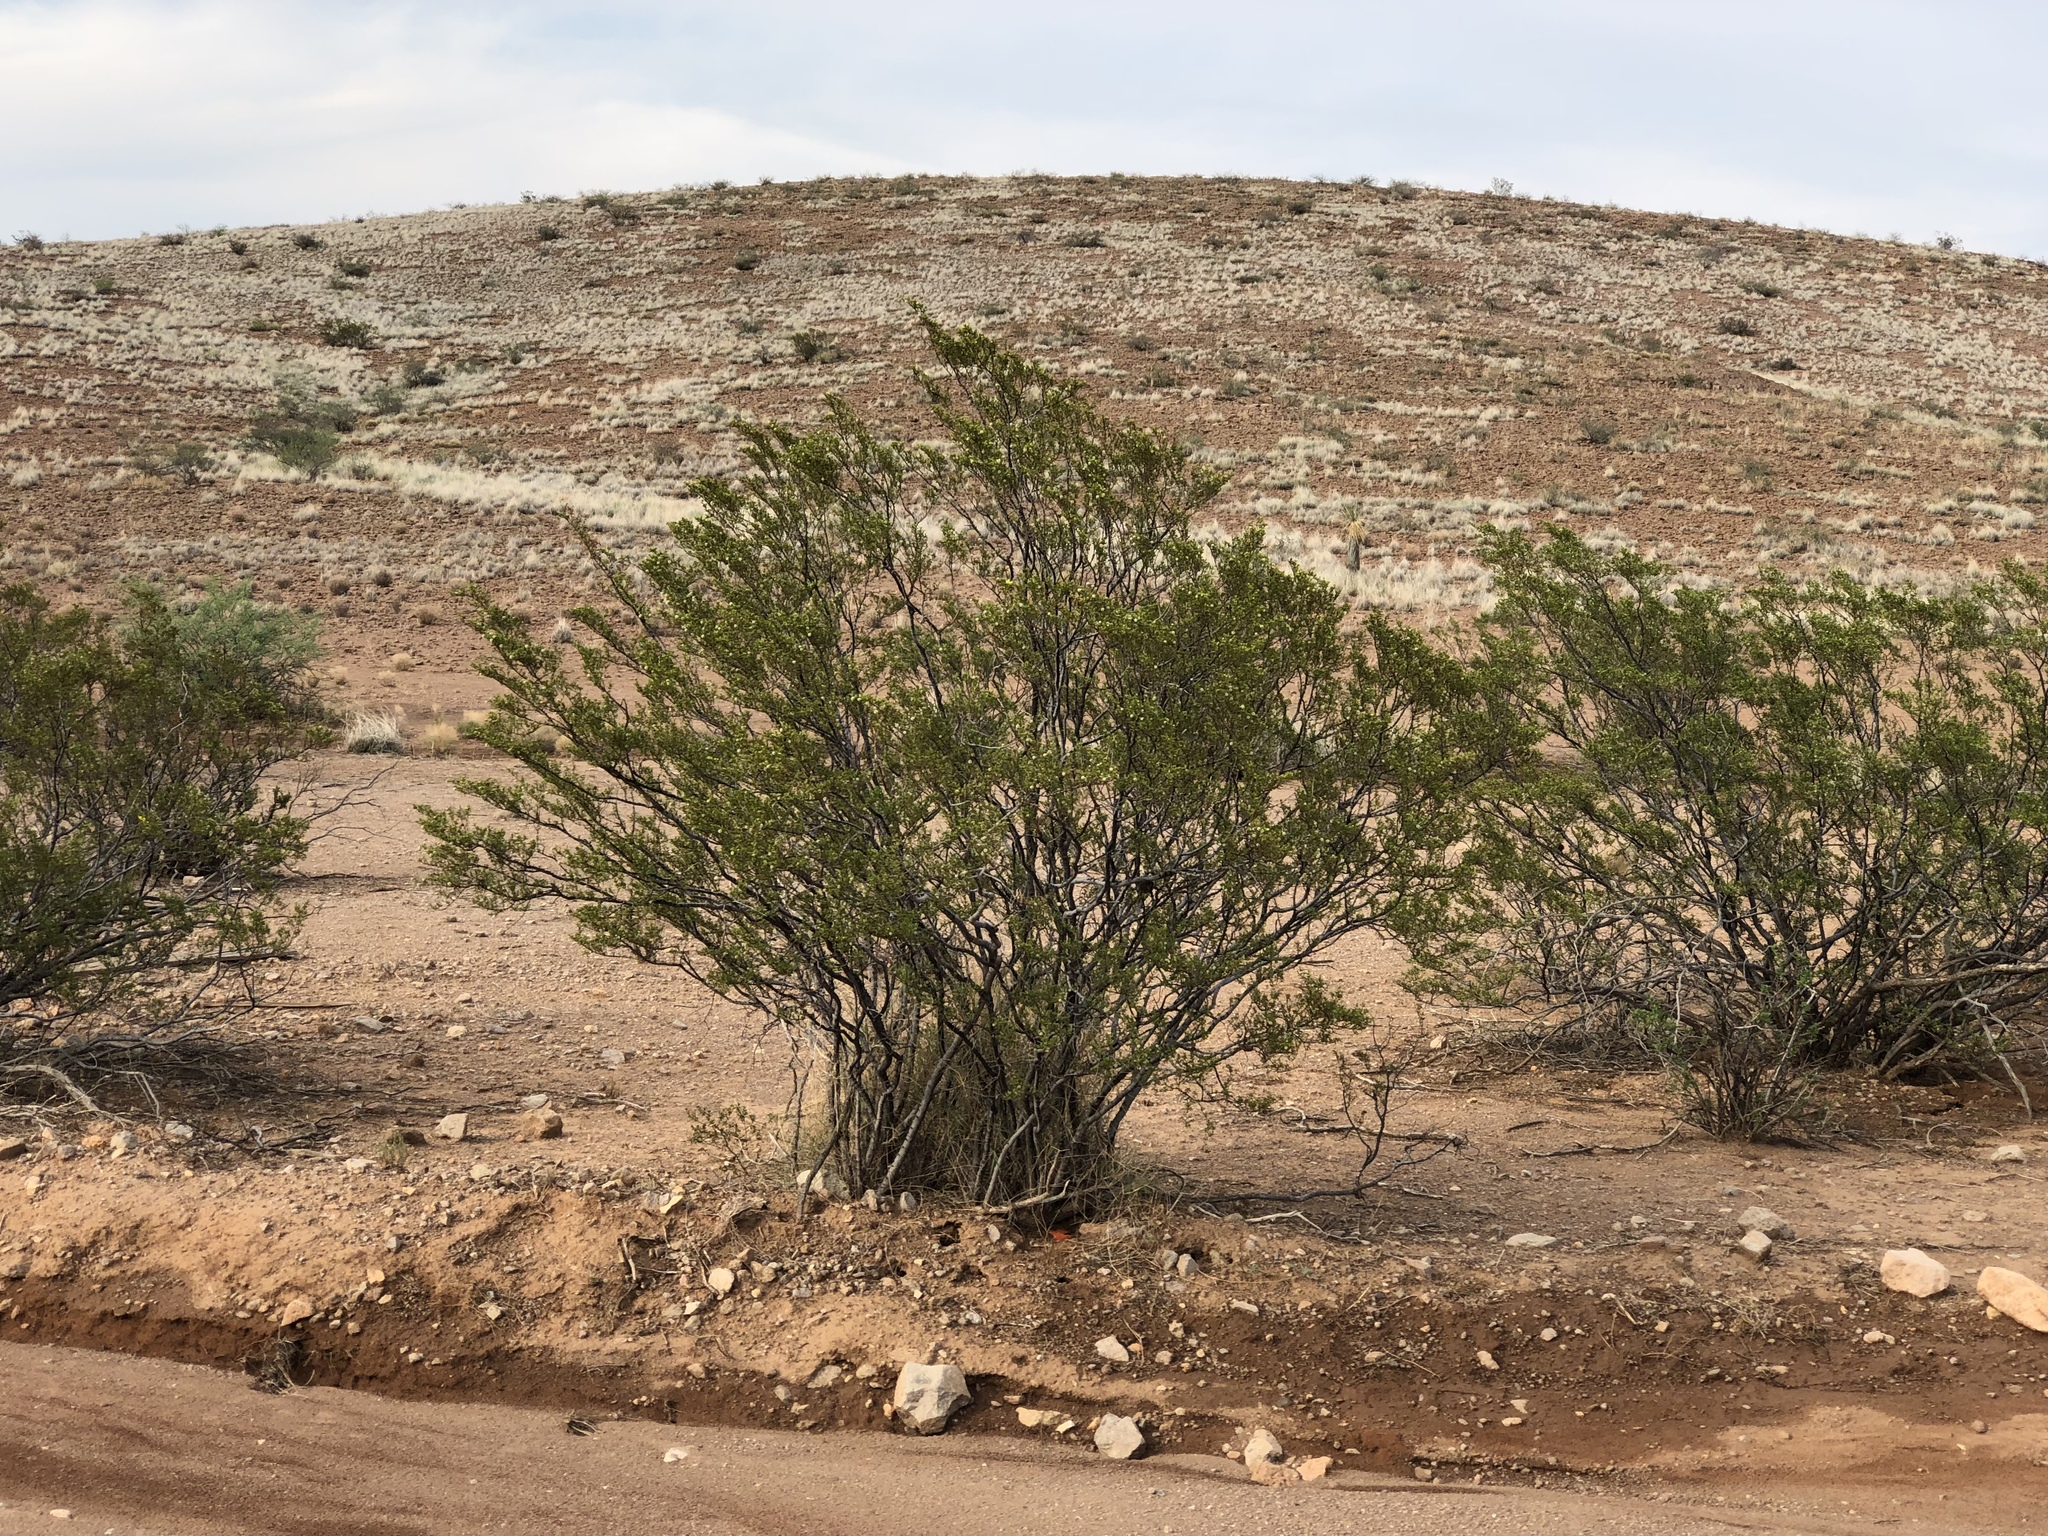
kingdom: Plantae
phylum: Tracheophyta
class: Magnoliopsida
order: Zygophyllales
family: Zygophyllaceae
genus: Larrea
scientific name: Larrea tridentata
